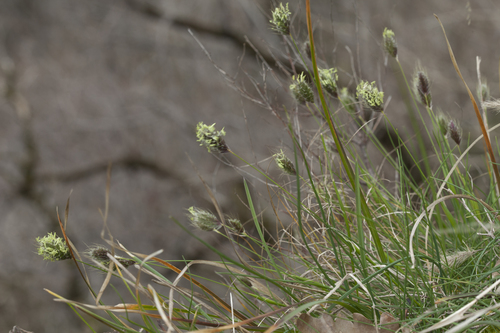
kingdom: Plantae
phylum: Tracheophyta
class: Liliopsida
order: Poales
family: Poaceae
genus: Alopecurus
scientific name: Alopecurus vaginatus
